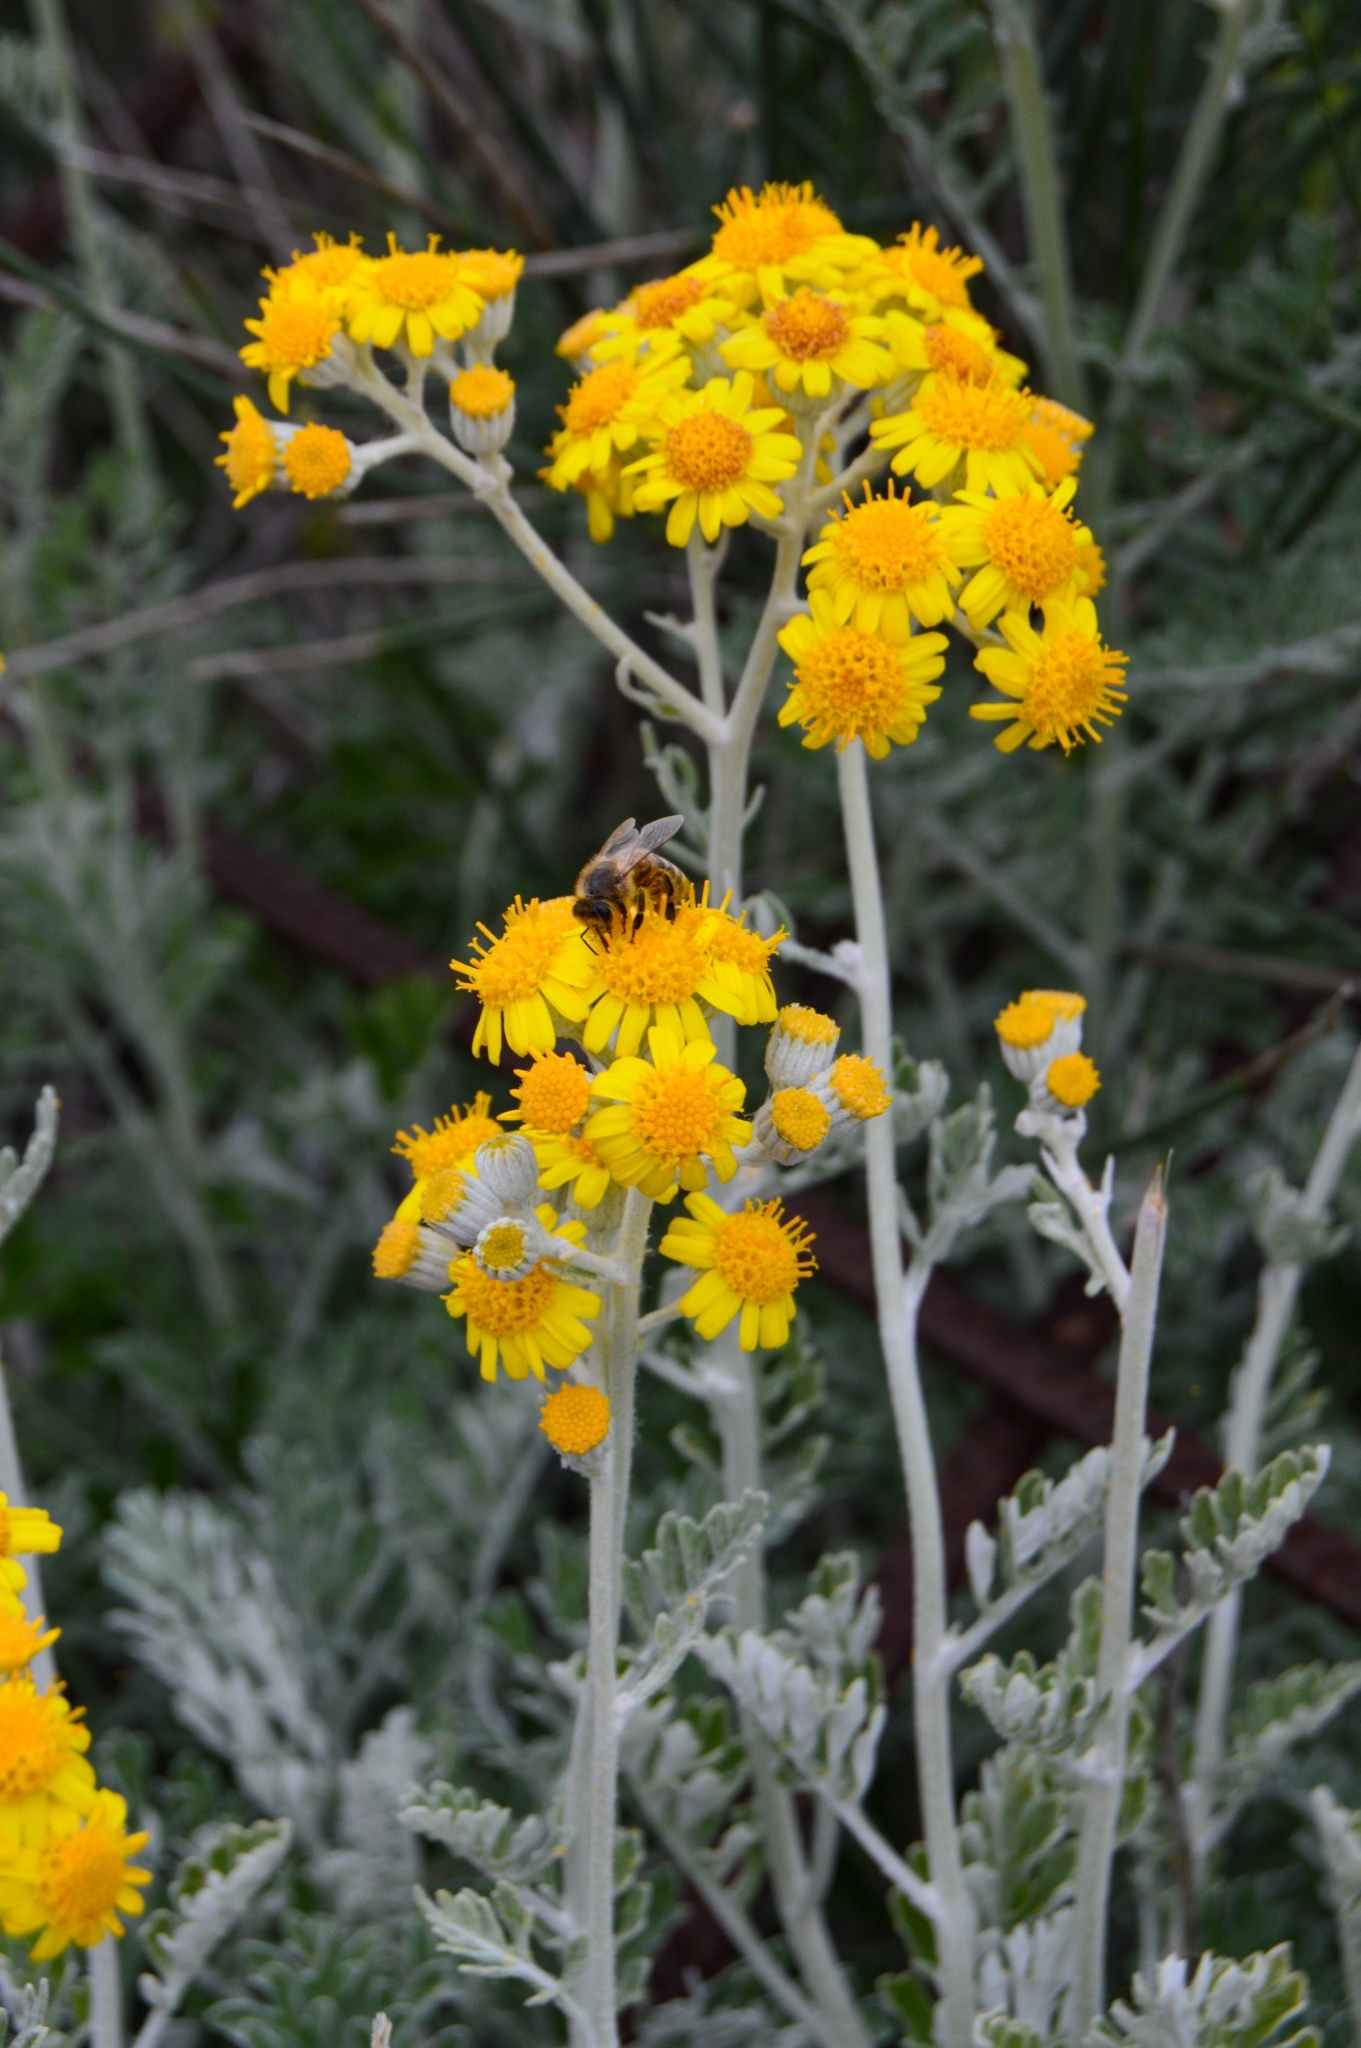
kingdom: Plantae
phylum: Tracheophyta
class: Magnoliopsida
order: Asterales
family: Asteraceae
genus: Jacobaea
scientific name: Jacobaea maritima
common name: Silver ragwort
